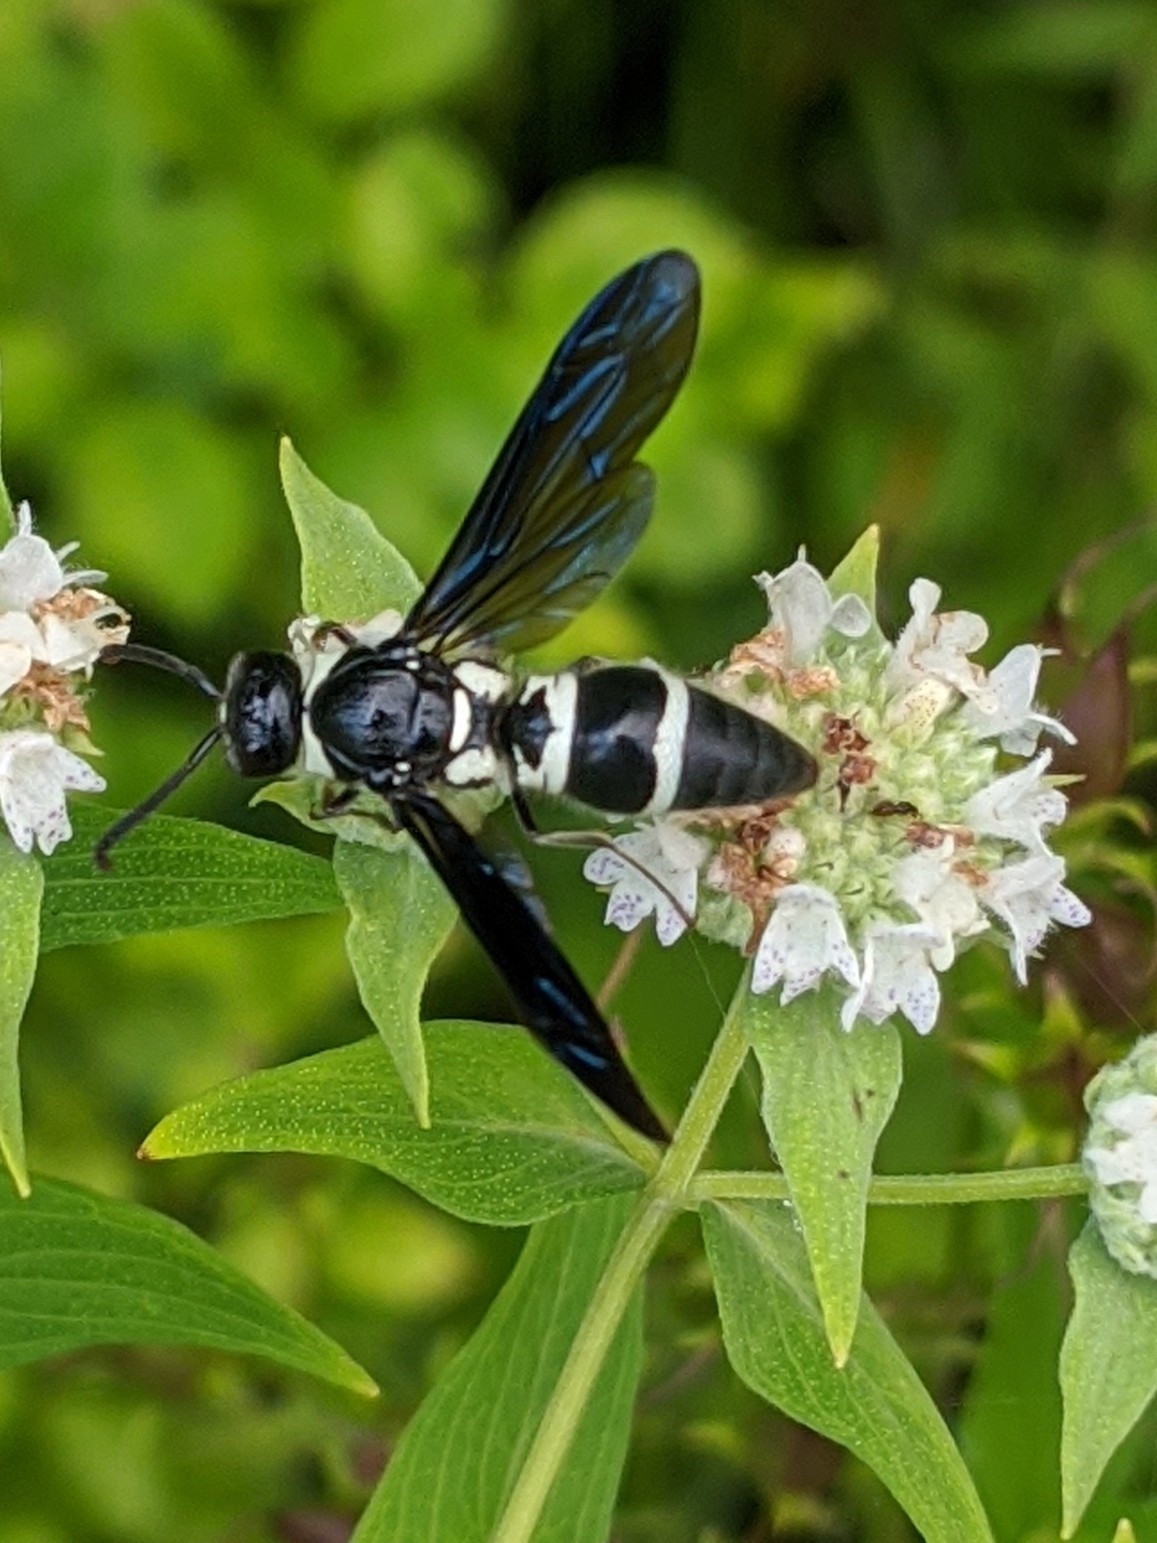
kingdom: Animalia
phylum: Arthropoda
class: Insecta
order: Hymenoptera
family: Eumenidae
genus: Pseudodynerus
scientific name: Pseudodynerus quadrisectus
